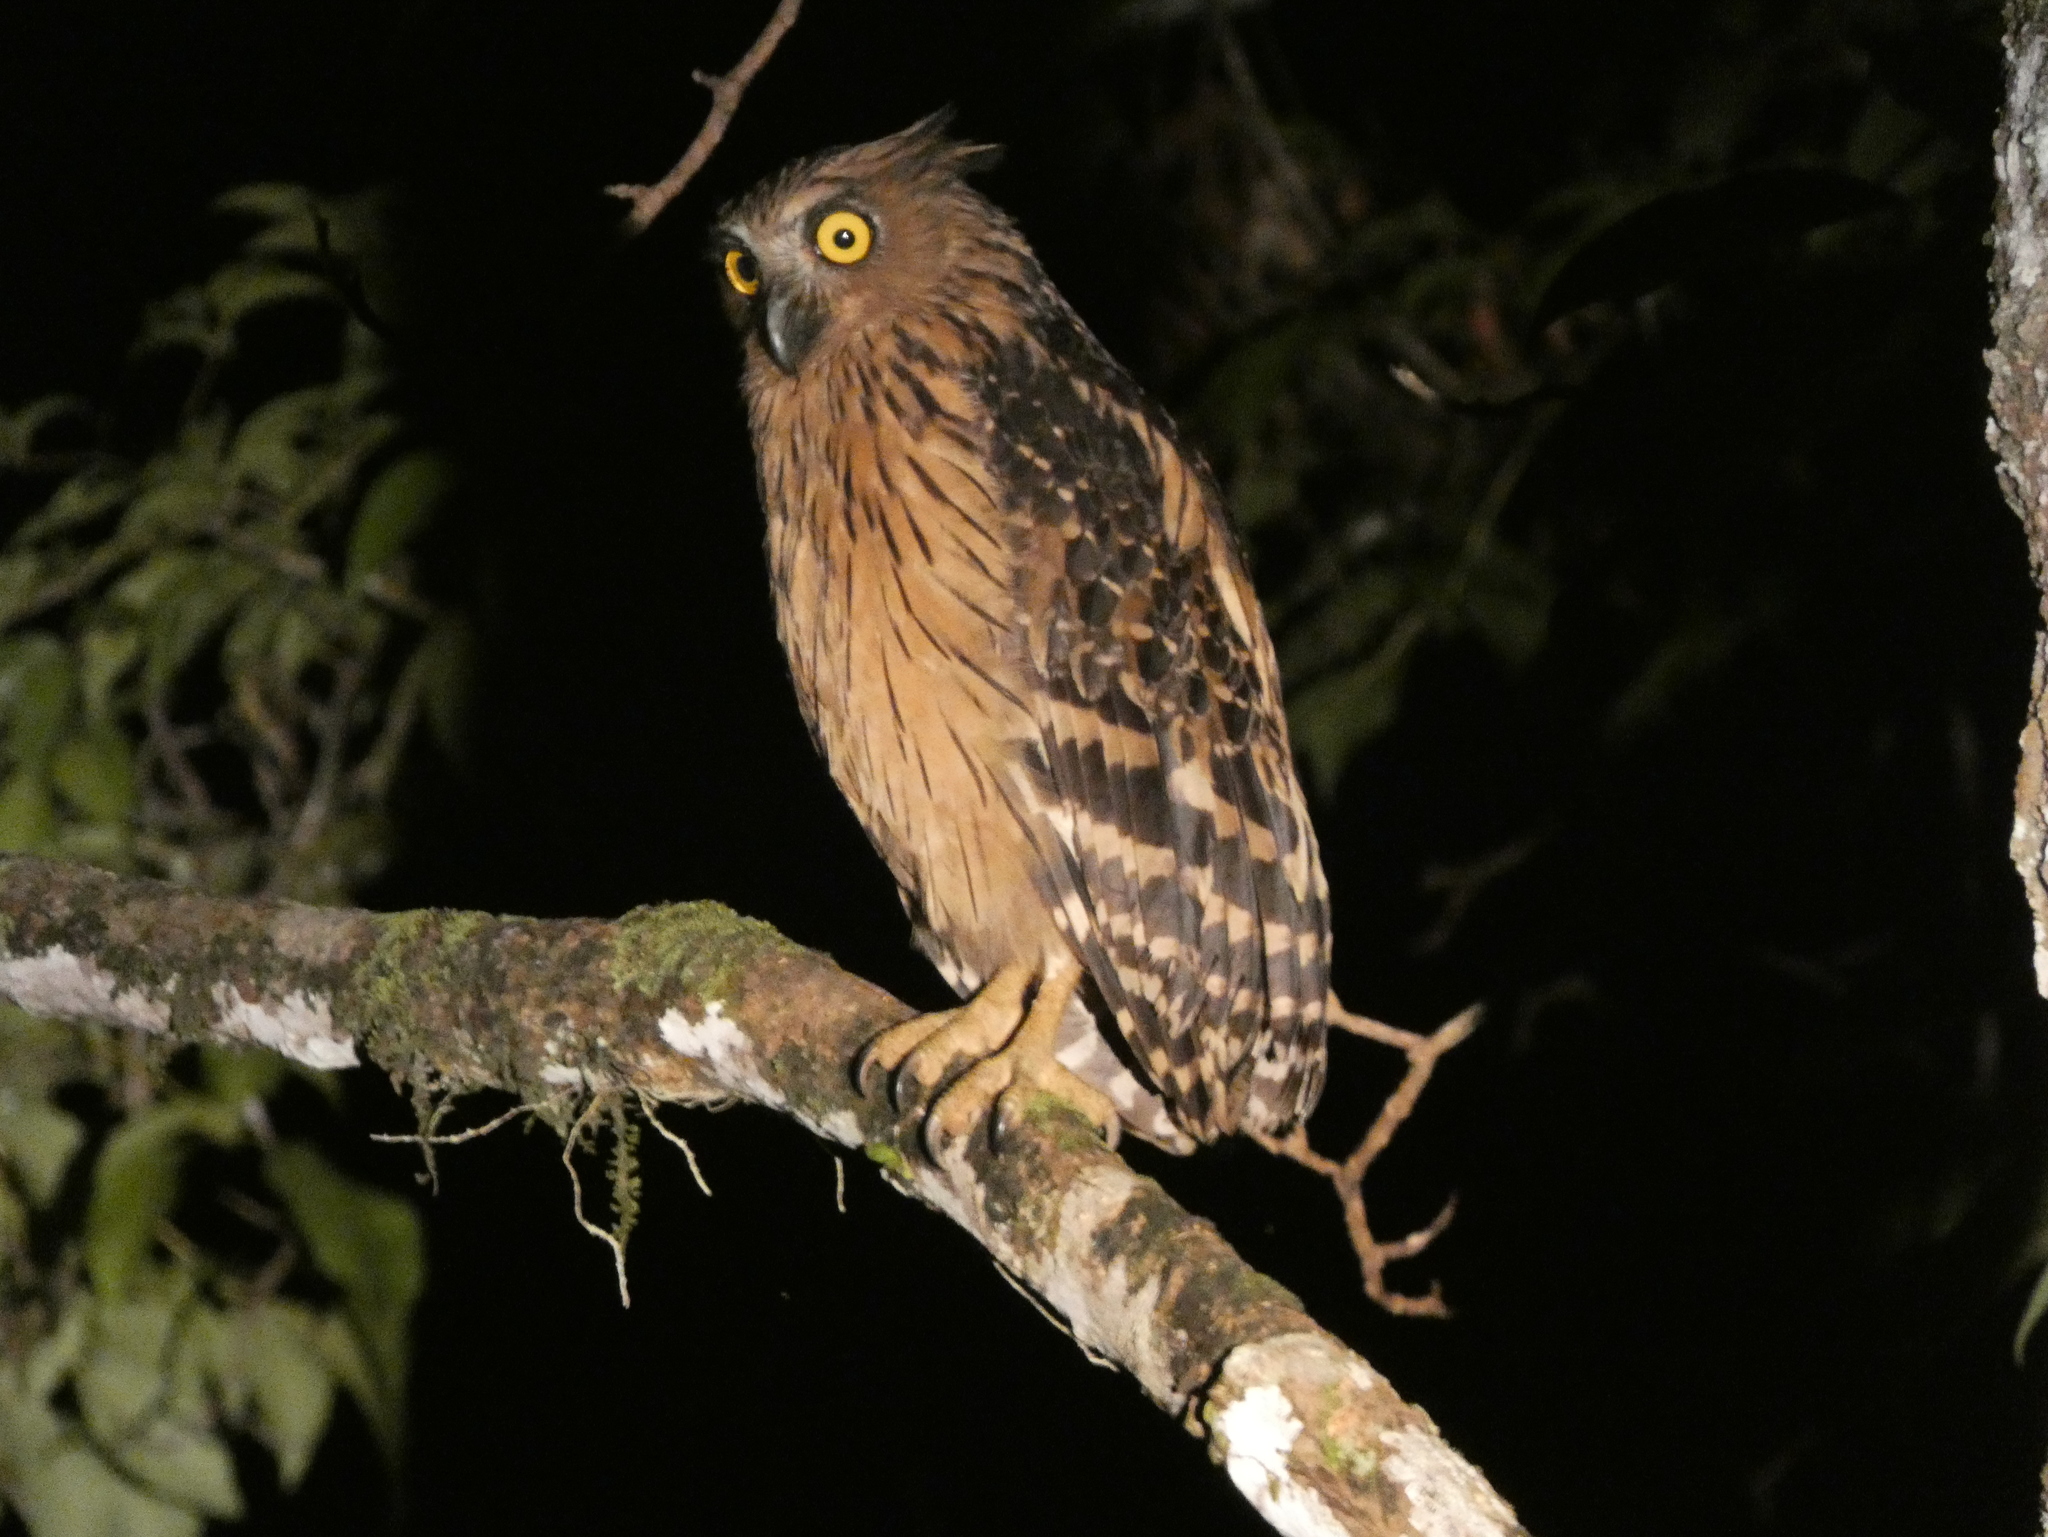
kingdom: Animalia
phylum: Chordata
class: Aves
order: Strigiformes
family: Strigidae
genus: Ketupa
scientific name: Ketupa ketupu
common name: Buffy fish-owl
